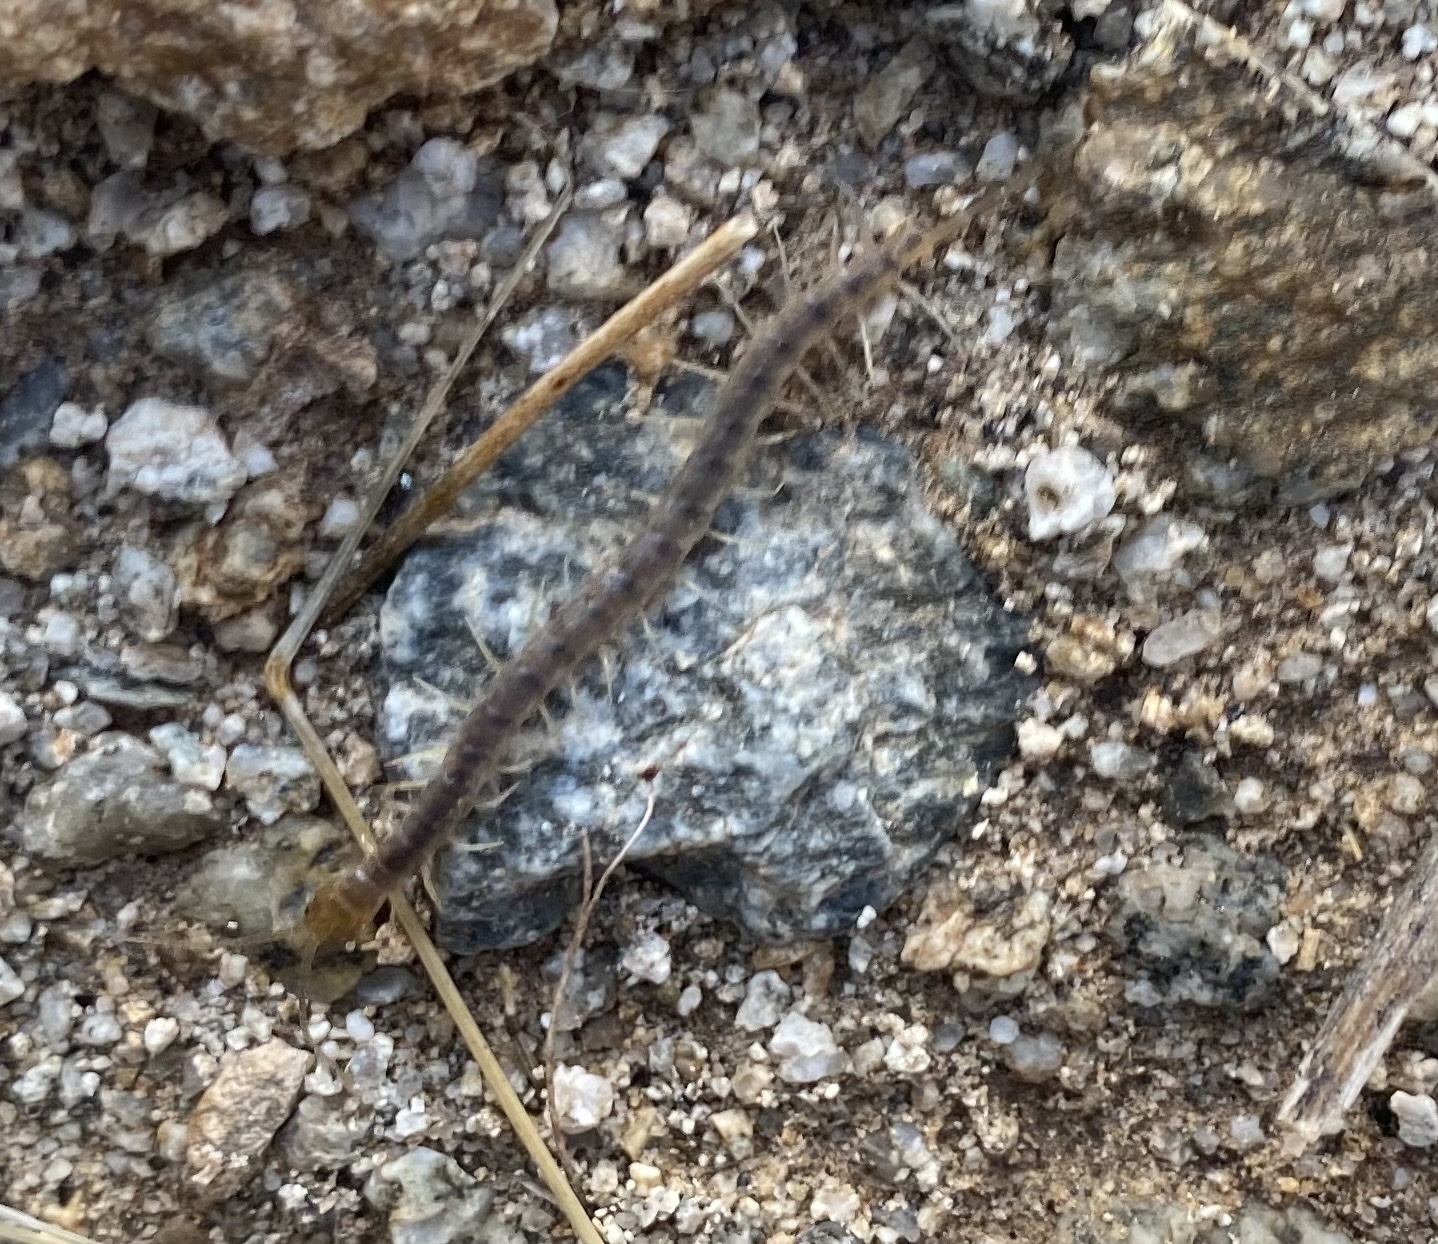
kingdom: Animalia
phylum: Arthropoda
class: Chilopoda
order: Scolopendromorpha
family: Scolopendridae
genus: Scolopendra
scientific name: Scolopendra polymorpha
